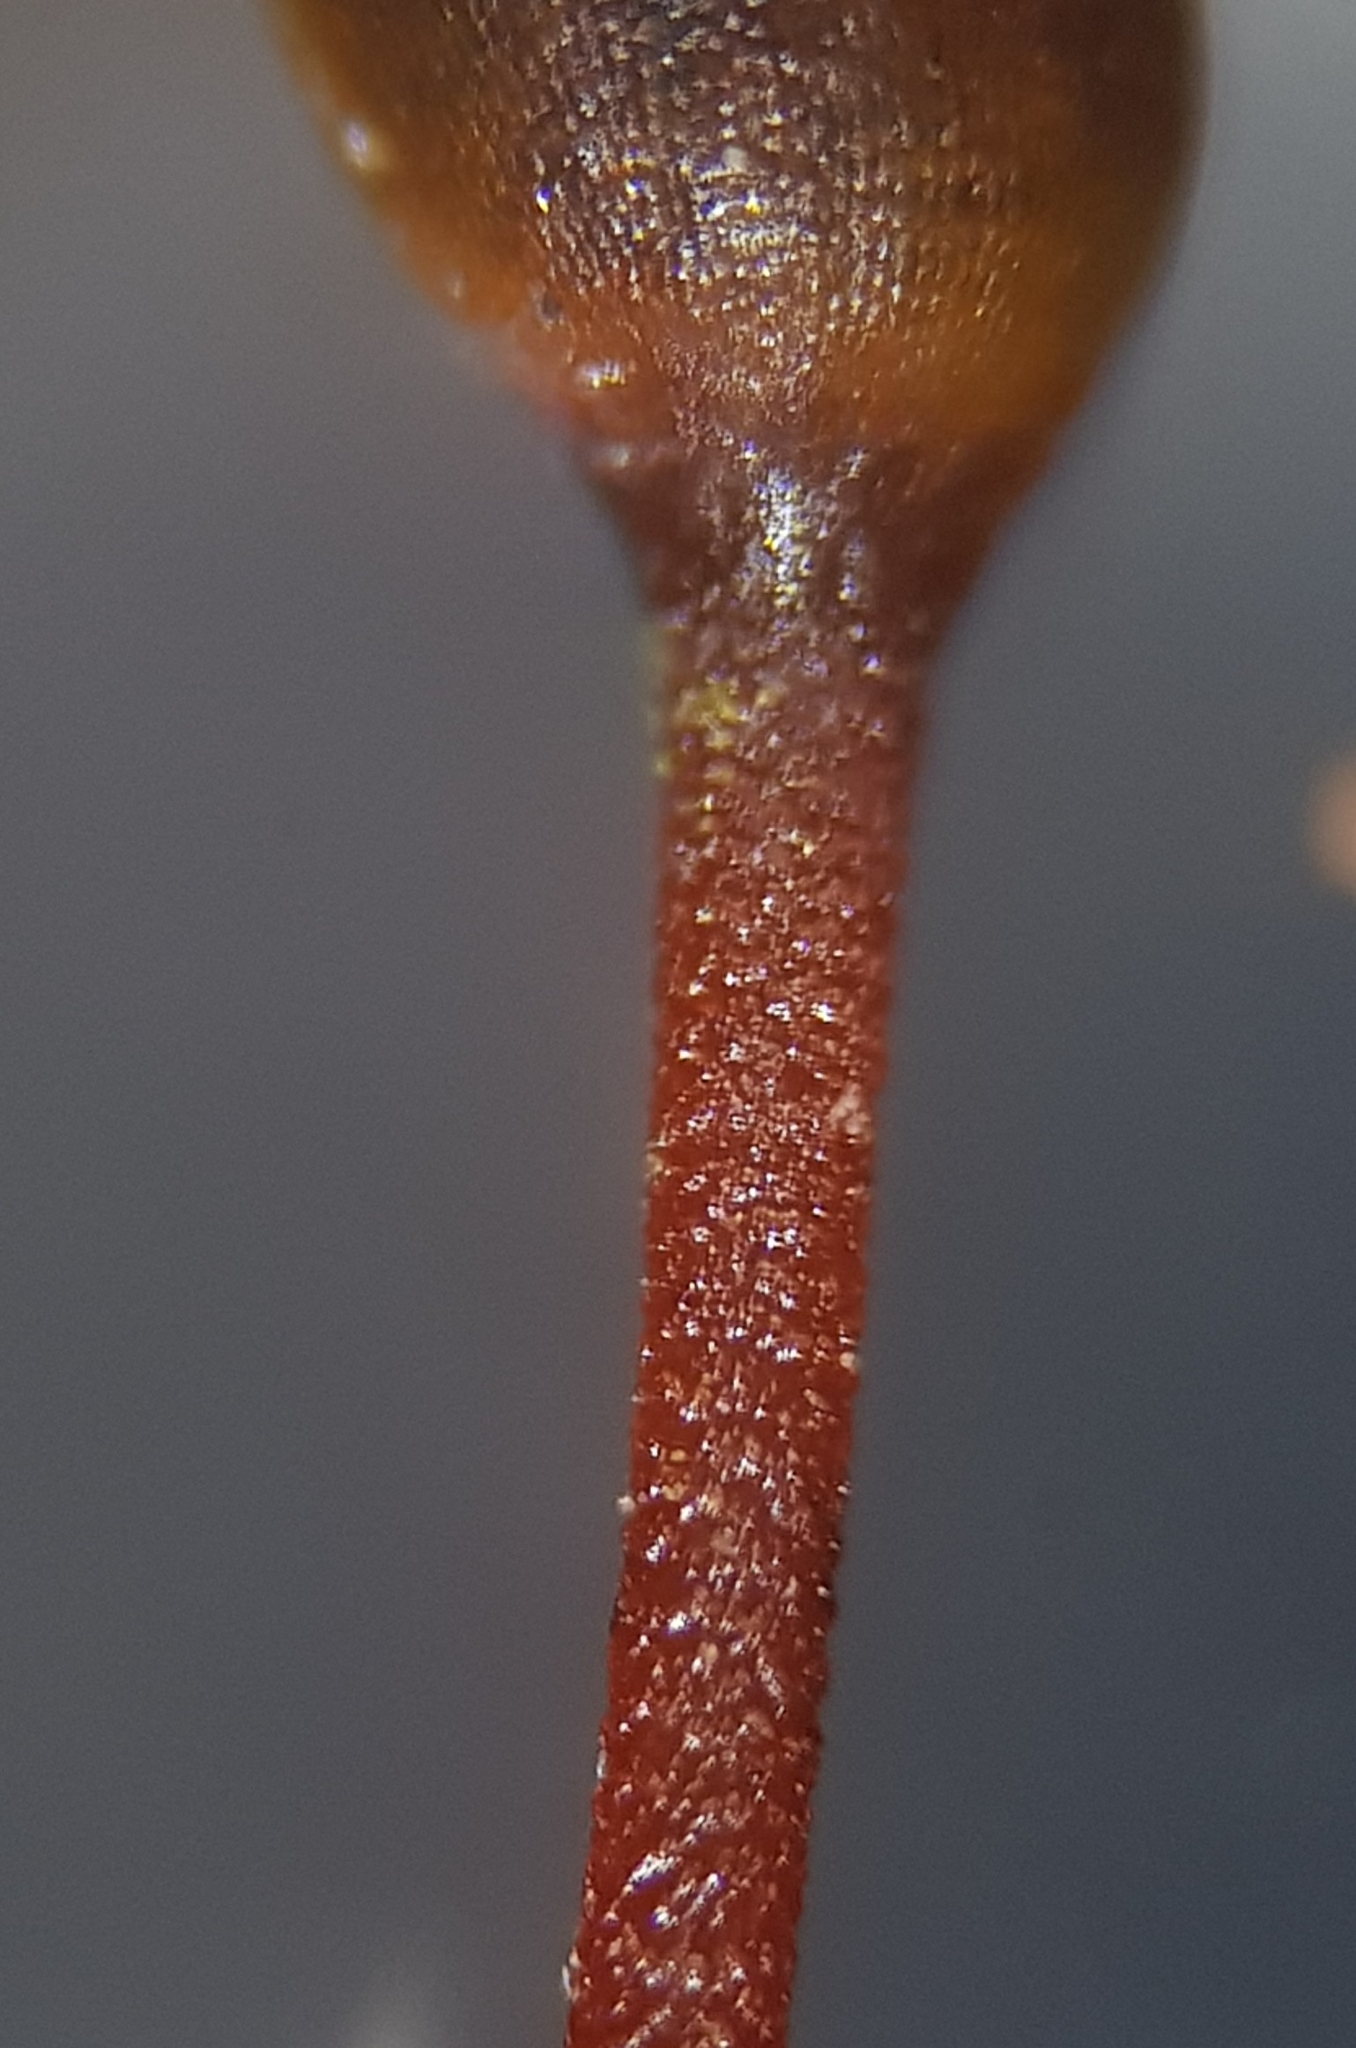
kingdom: Plantae
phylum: Bryophyta
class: Bryopsida
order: Hypnales
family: Brachytheciaceae
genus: Brachythecium
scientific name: Brachythecium rutabulum
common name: Rough-stalked feather-moss
